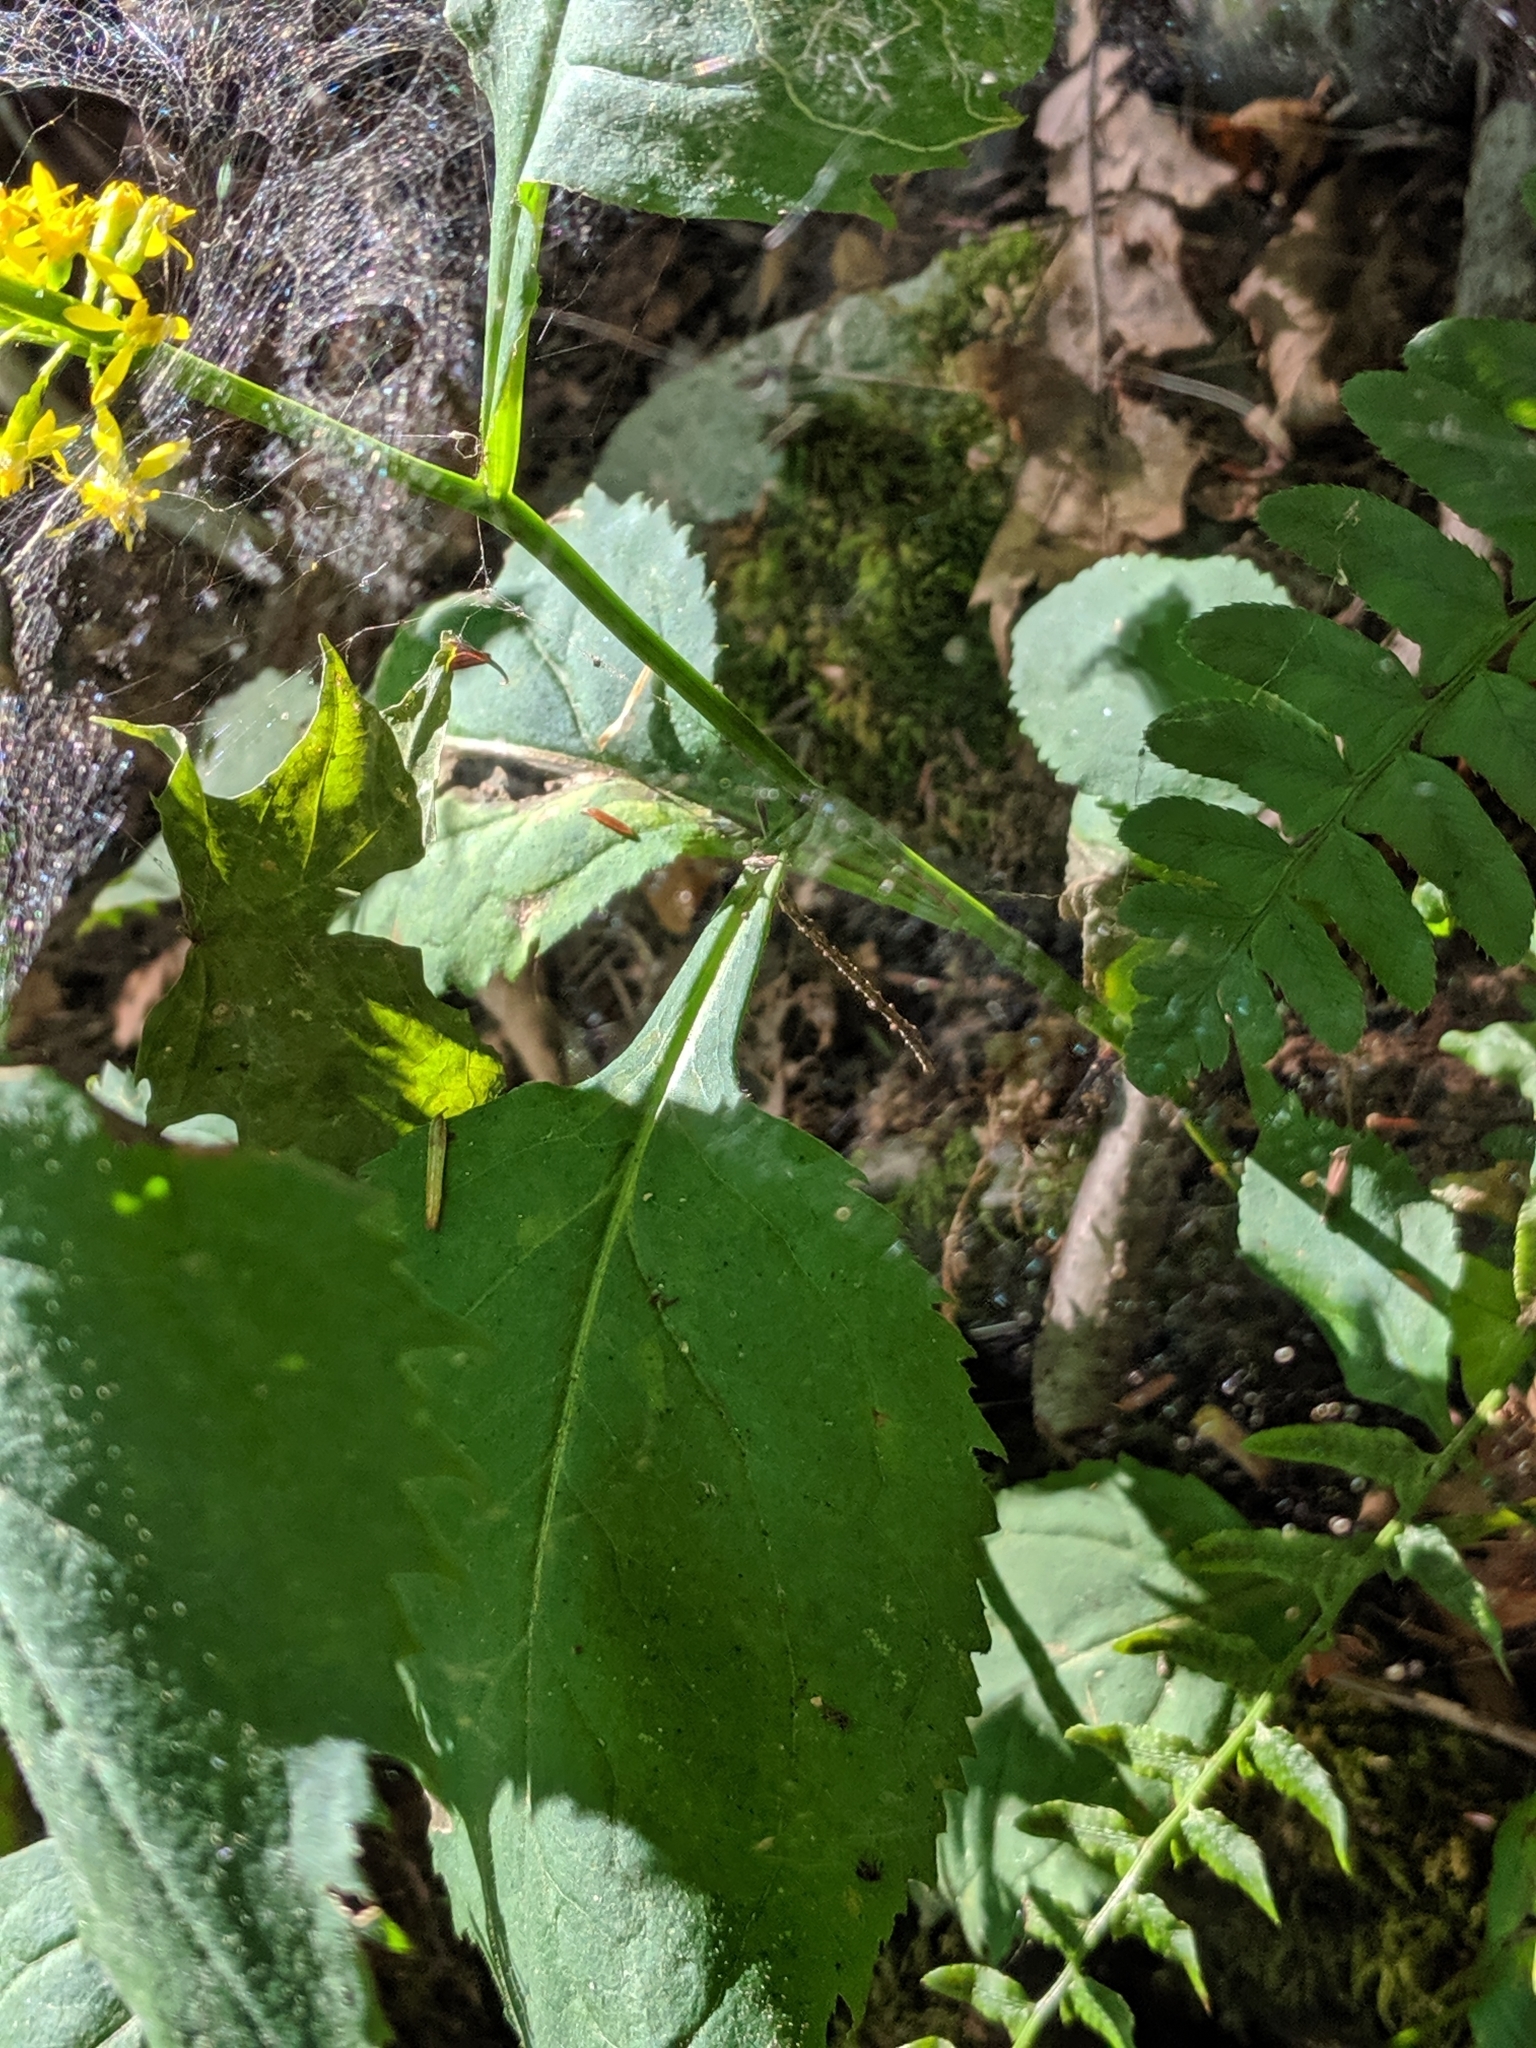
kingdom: Plantae
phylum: Tracheophyta
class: Magnoliopsida
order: Asterales
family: Asteraceae
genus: Solidago
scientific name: Solidago flexicaulis
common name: Zig-zag goldenrod
